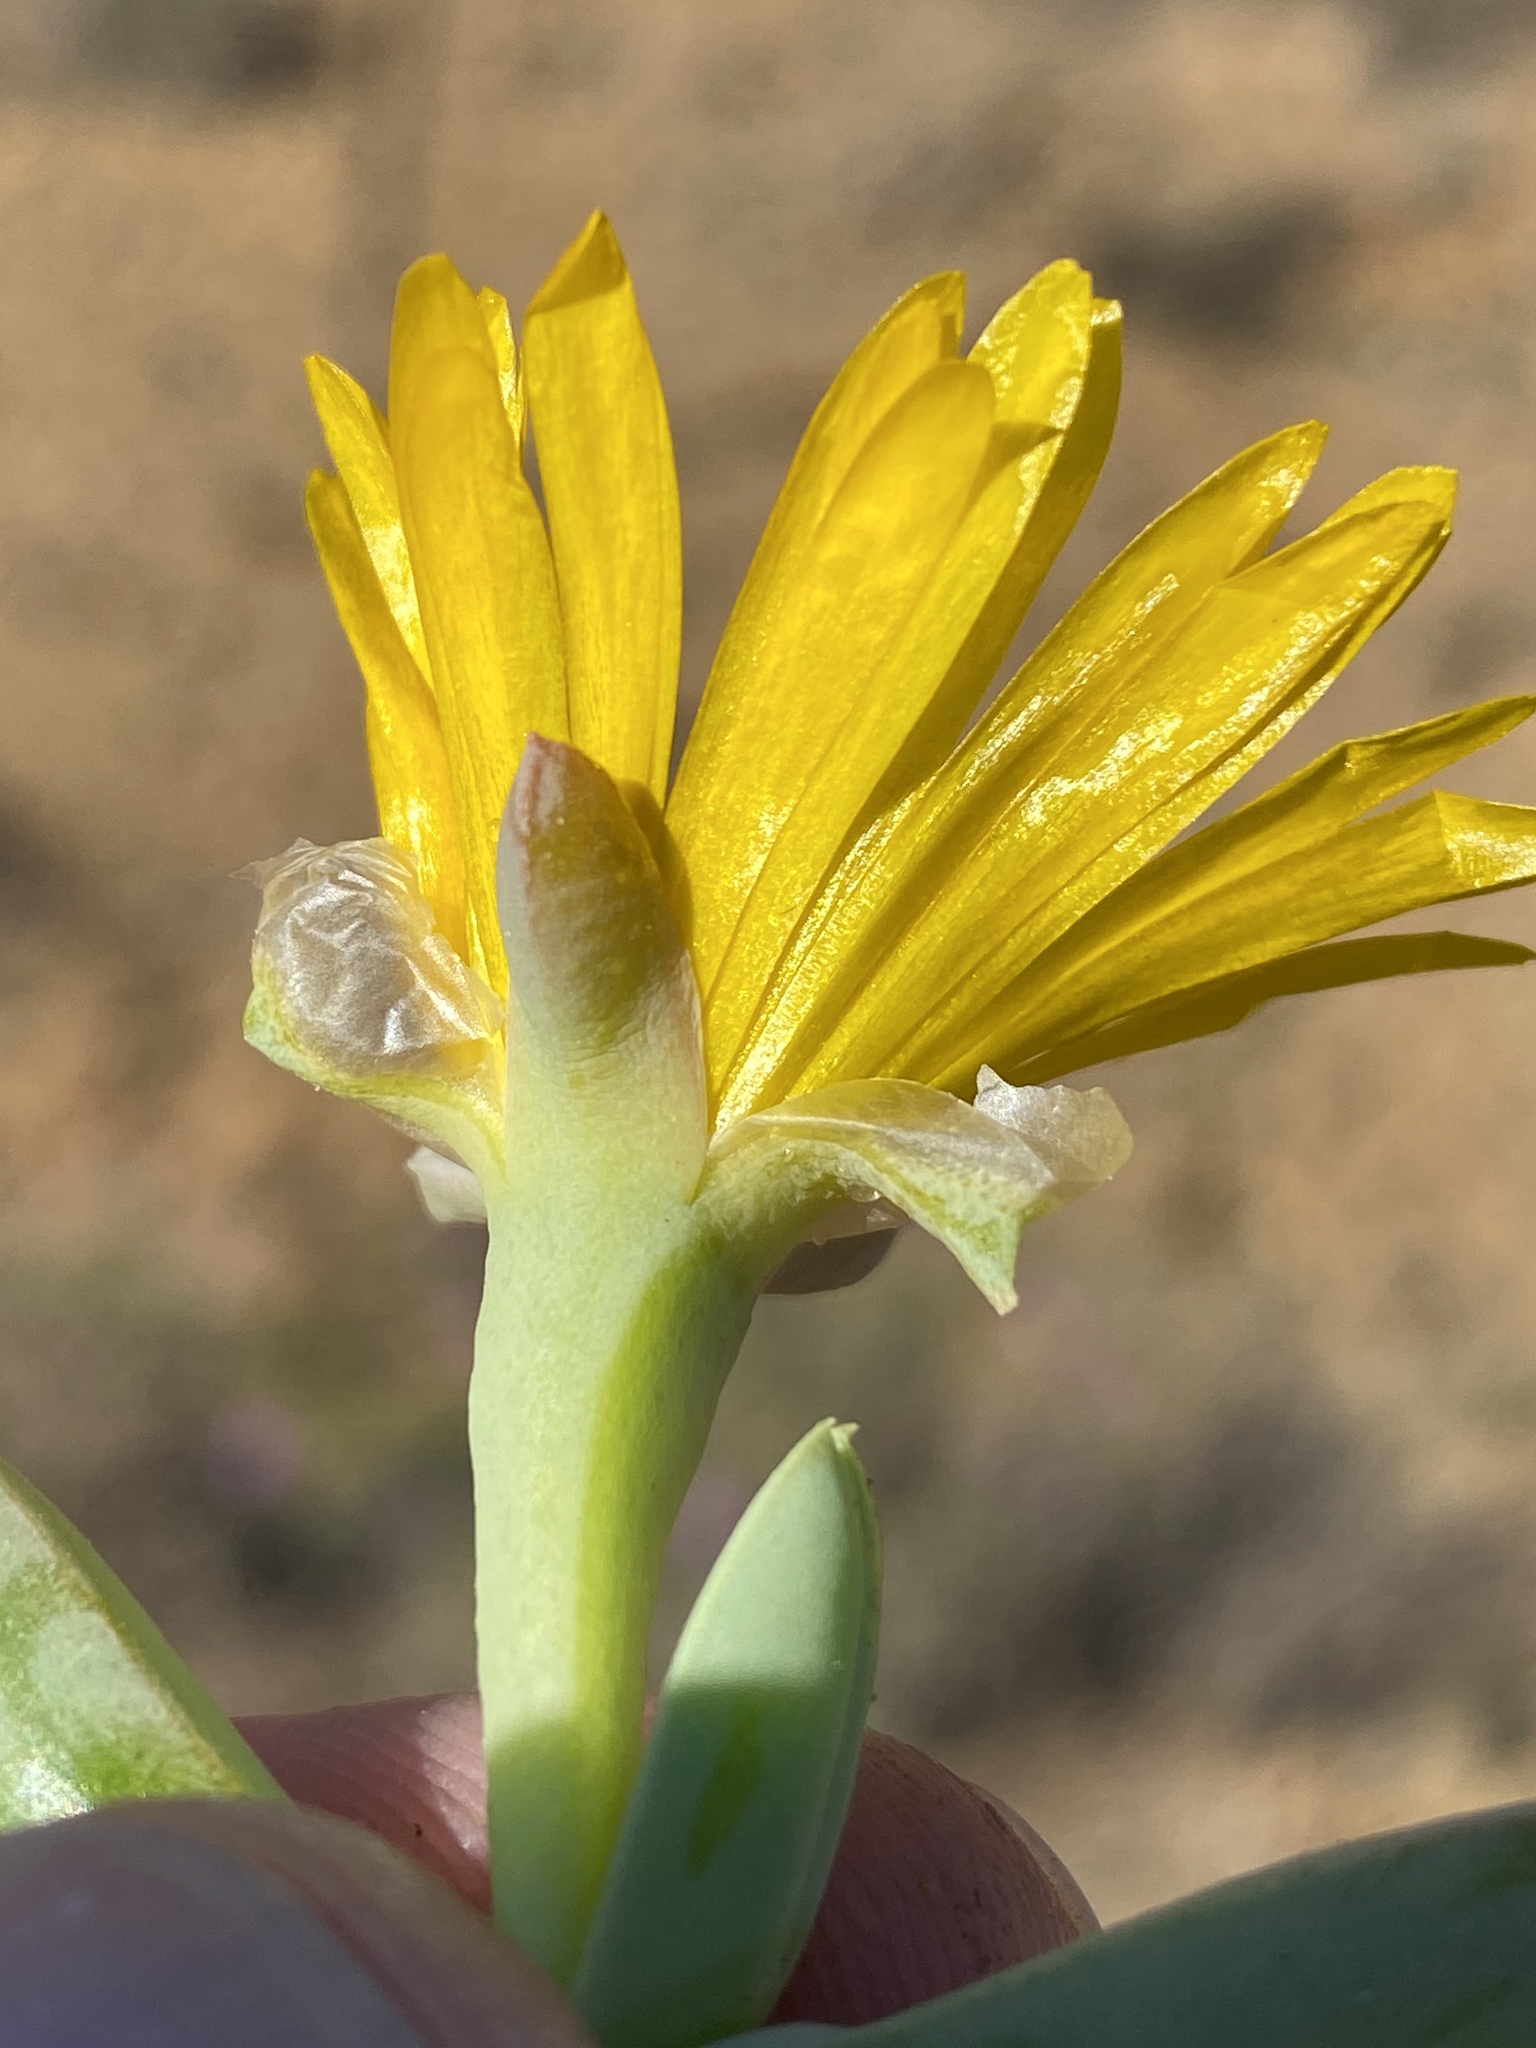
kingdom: Plantae
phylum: Tracheophyta
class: Magnoliopsida
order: Caryophyllales
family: Aizoaceae
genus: Malephora
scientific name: Malephora lutea
